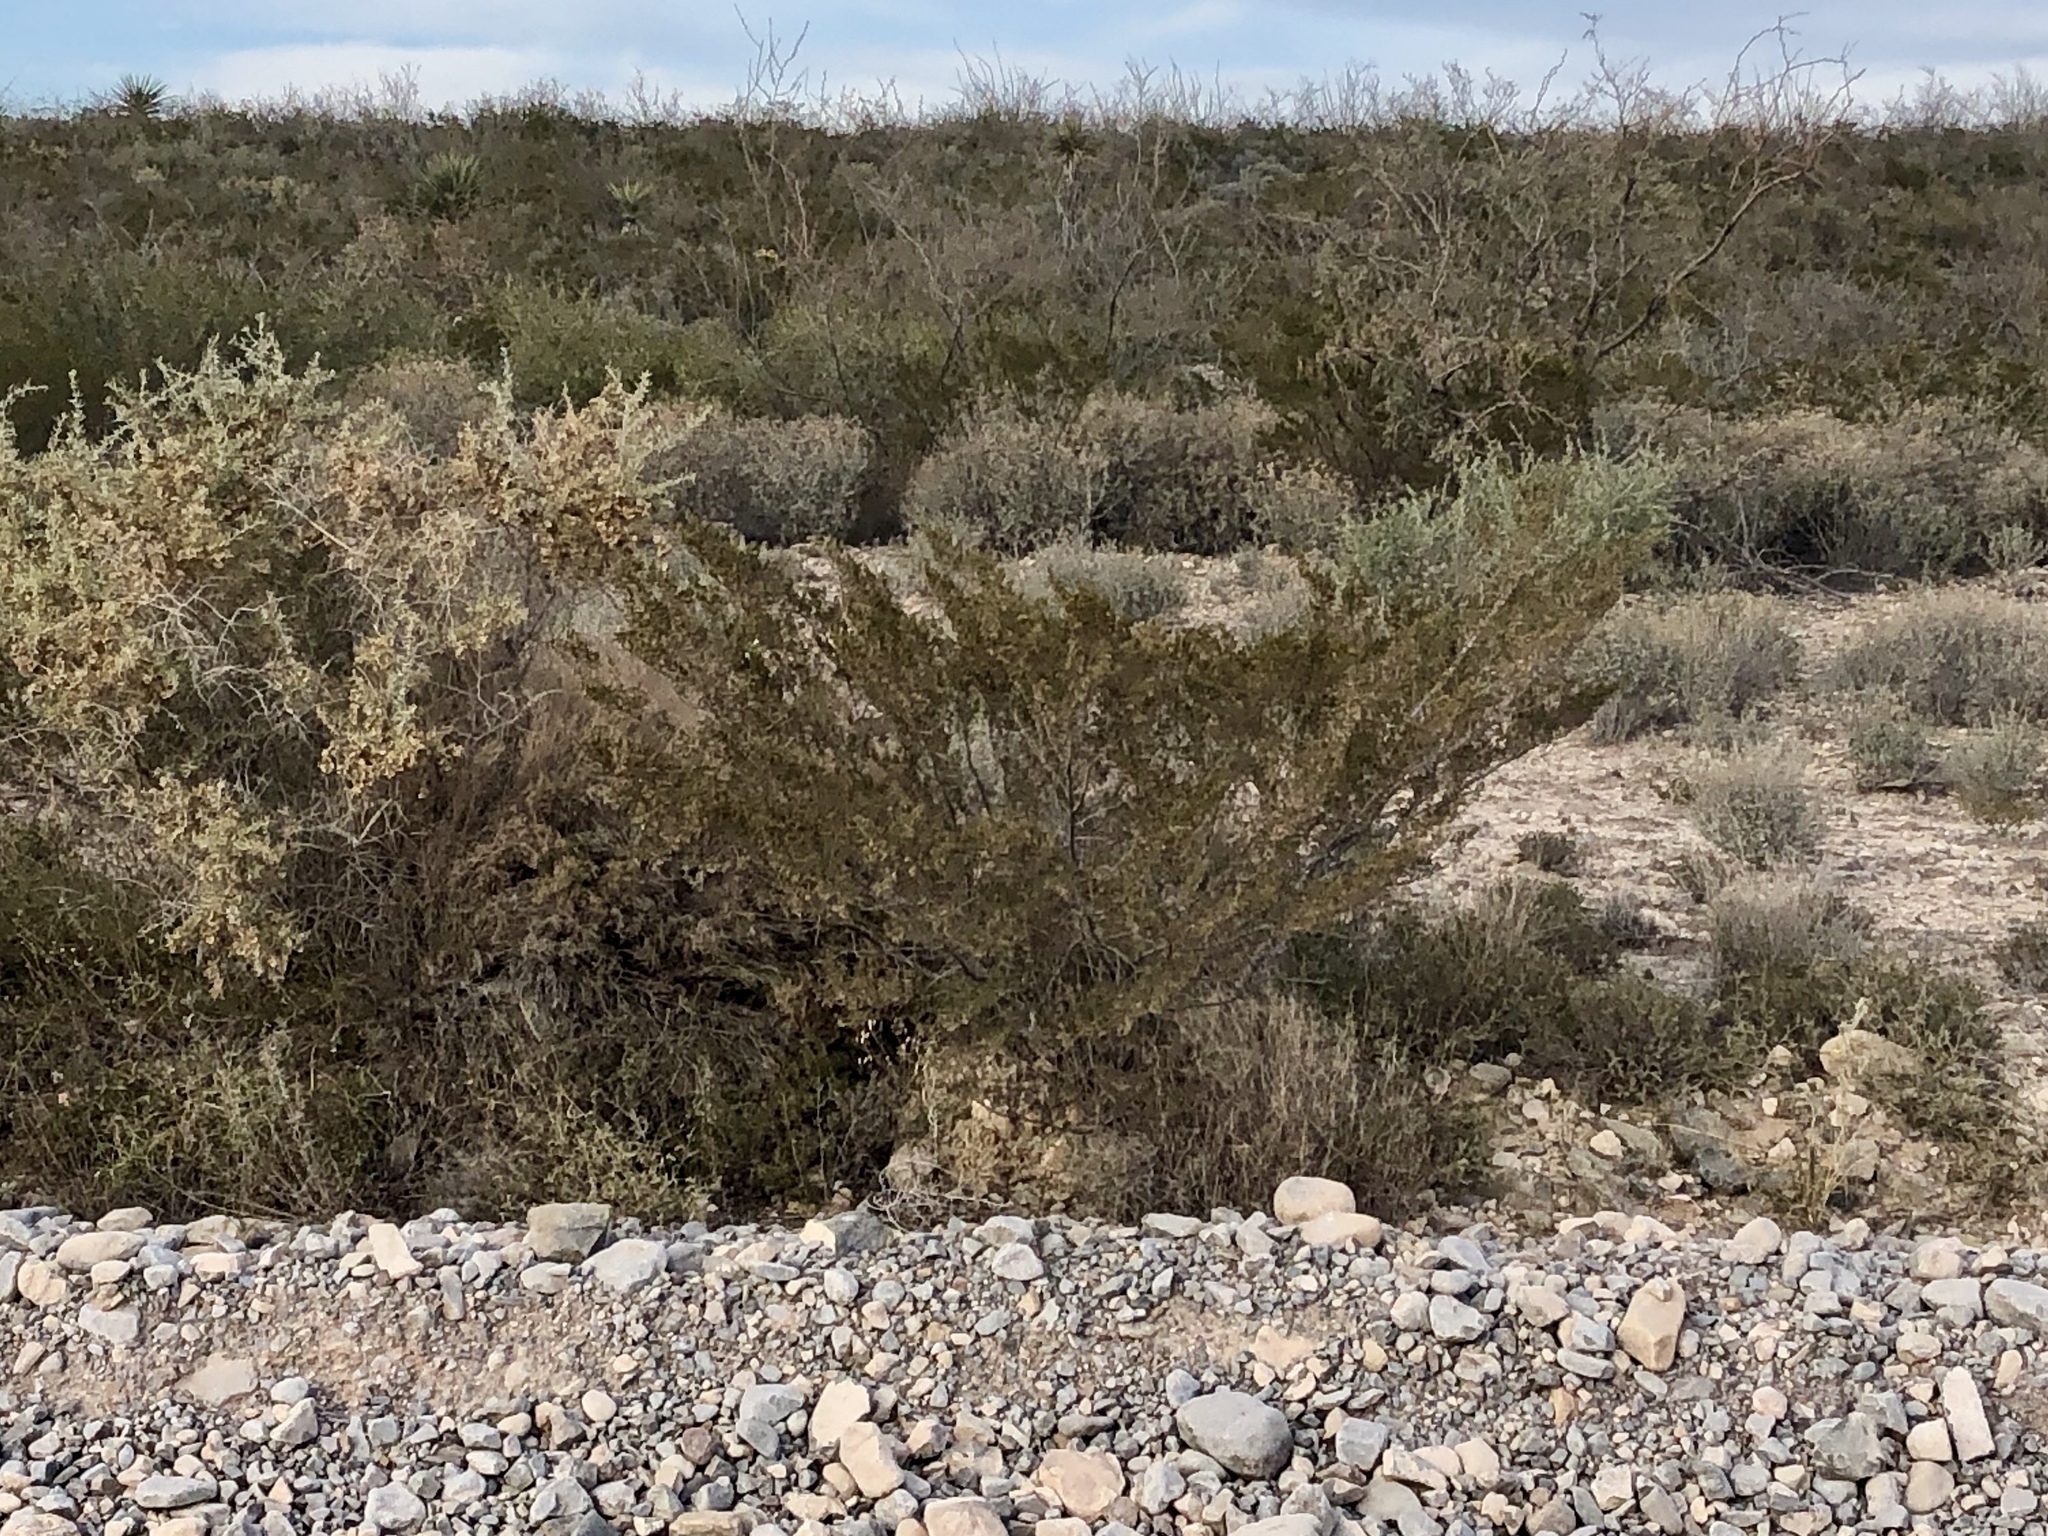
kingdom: Plantae
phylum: Tracheophyta
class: Magnoliopsida
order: Zygophyllales
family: Zygophyllaceae
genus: Larrea
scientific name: Larrea tridentata
